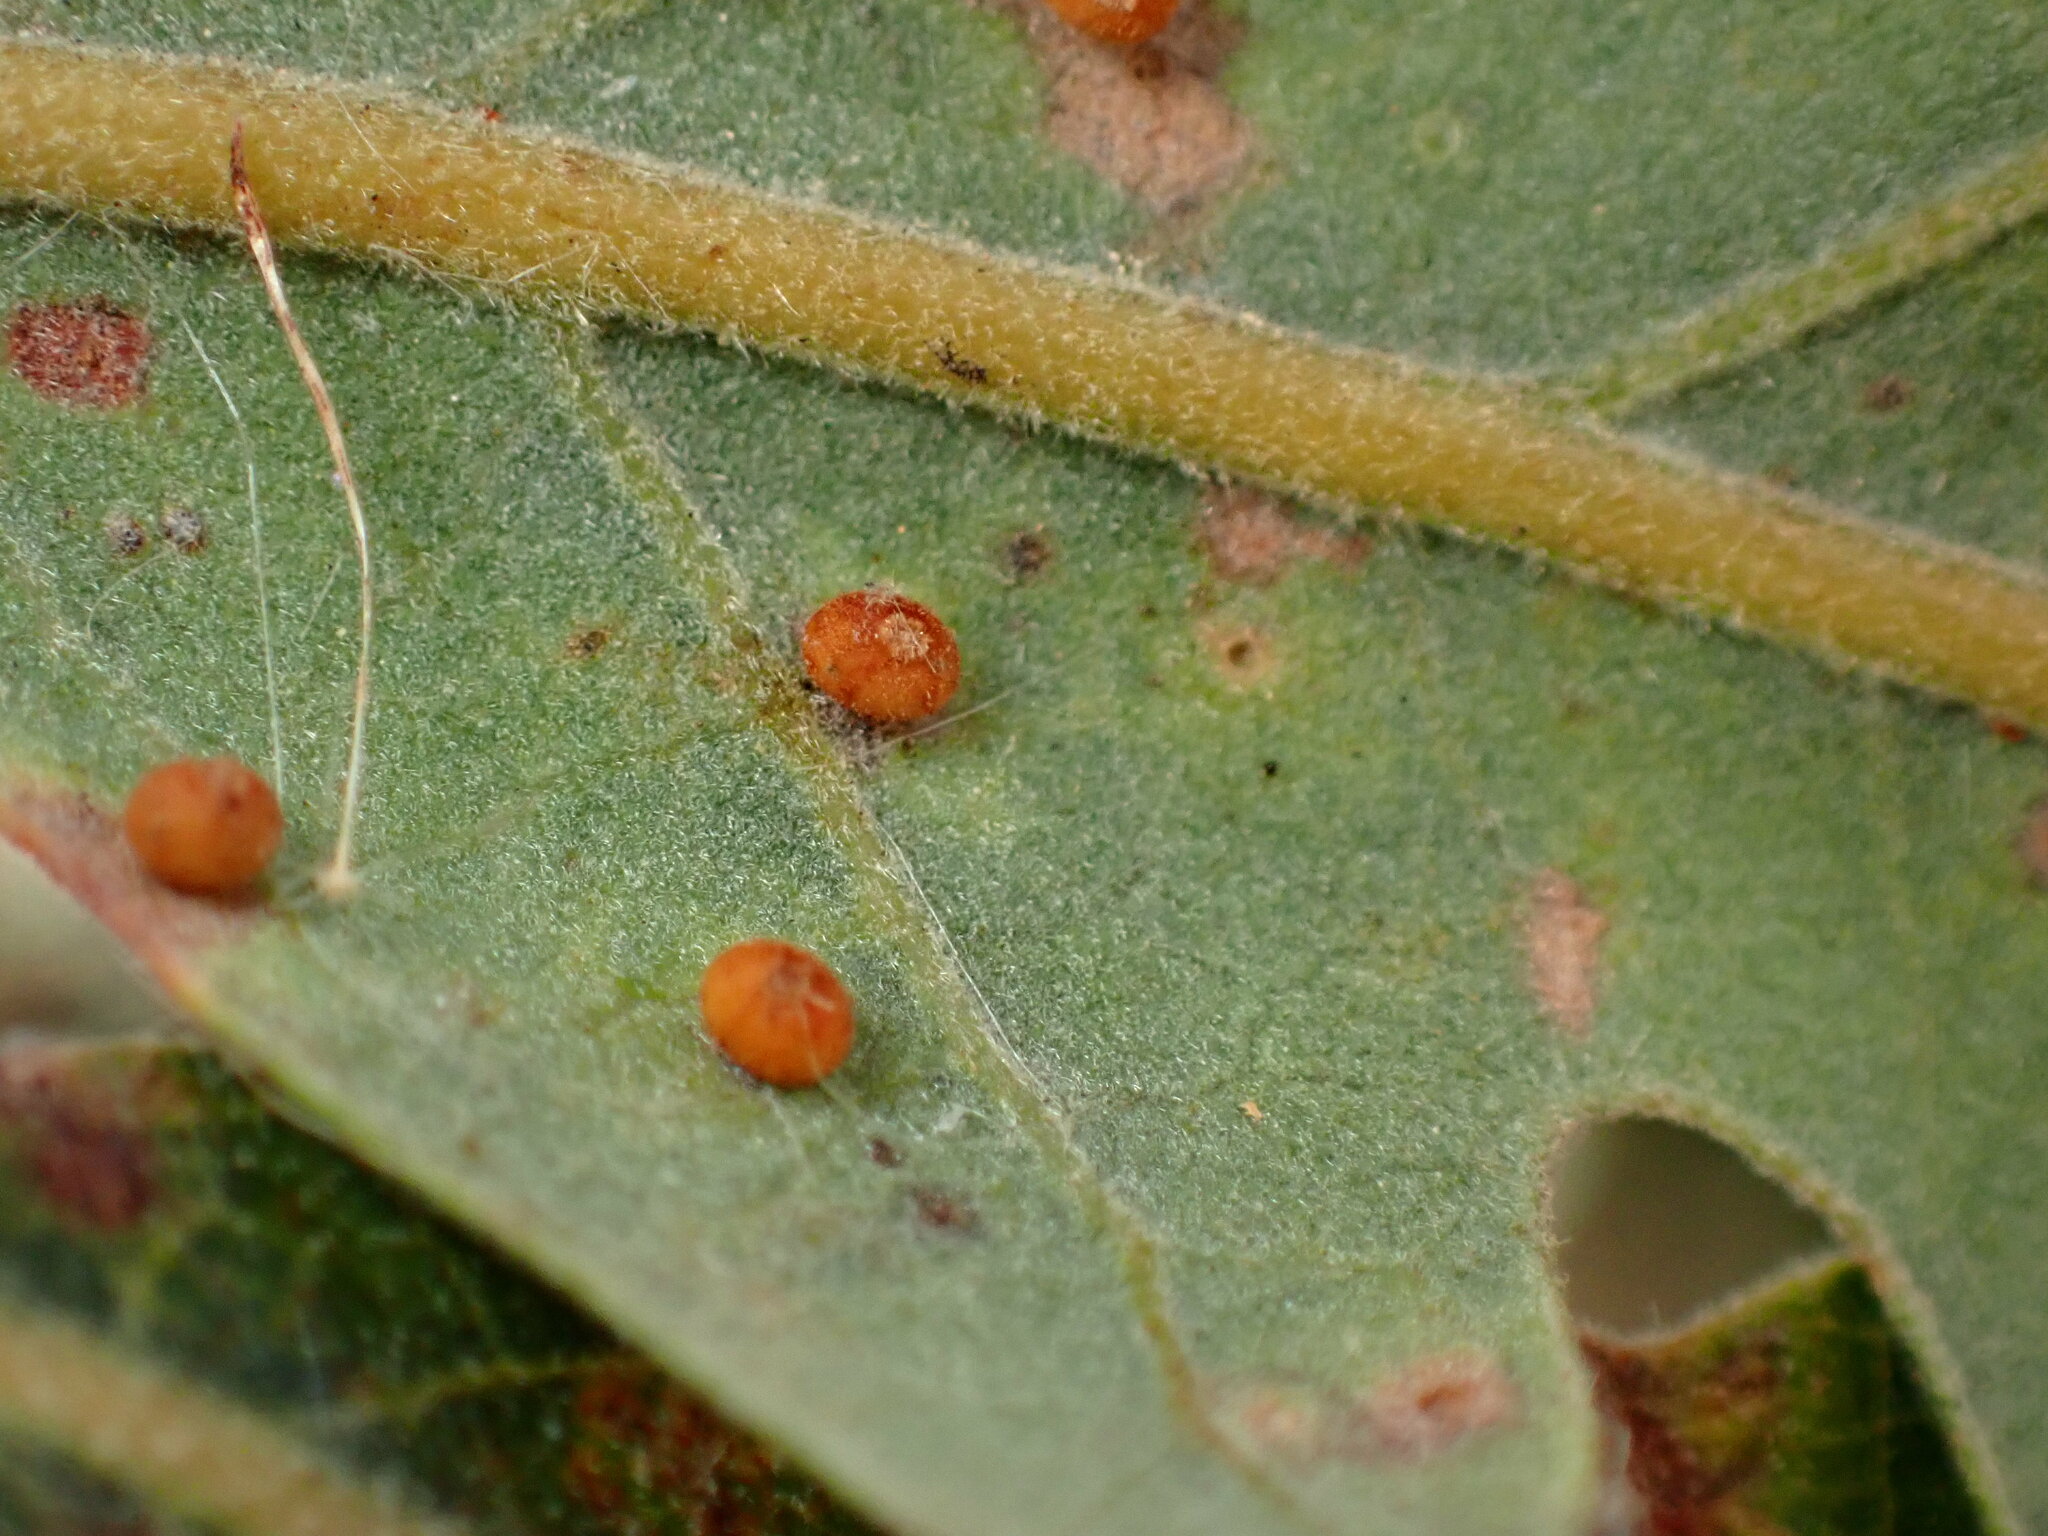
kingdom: Animalia
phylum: Arthropoda
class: Insecta
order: Hymenoptera
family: Cynipidae
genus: Neuroterus
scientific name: Neuroterus saltarius
